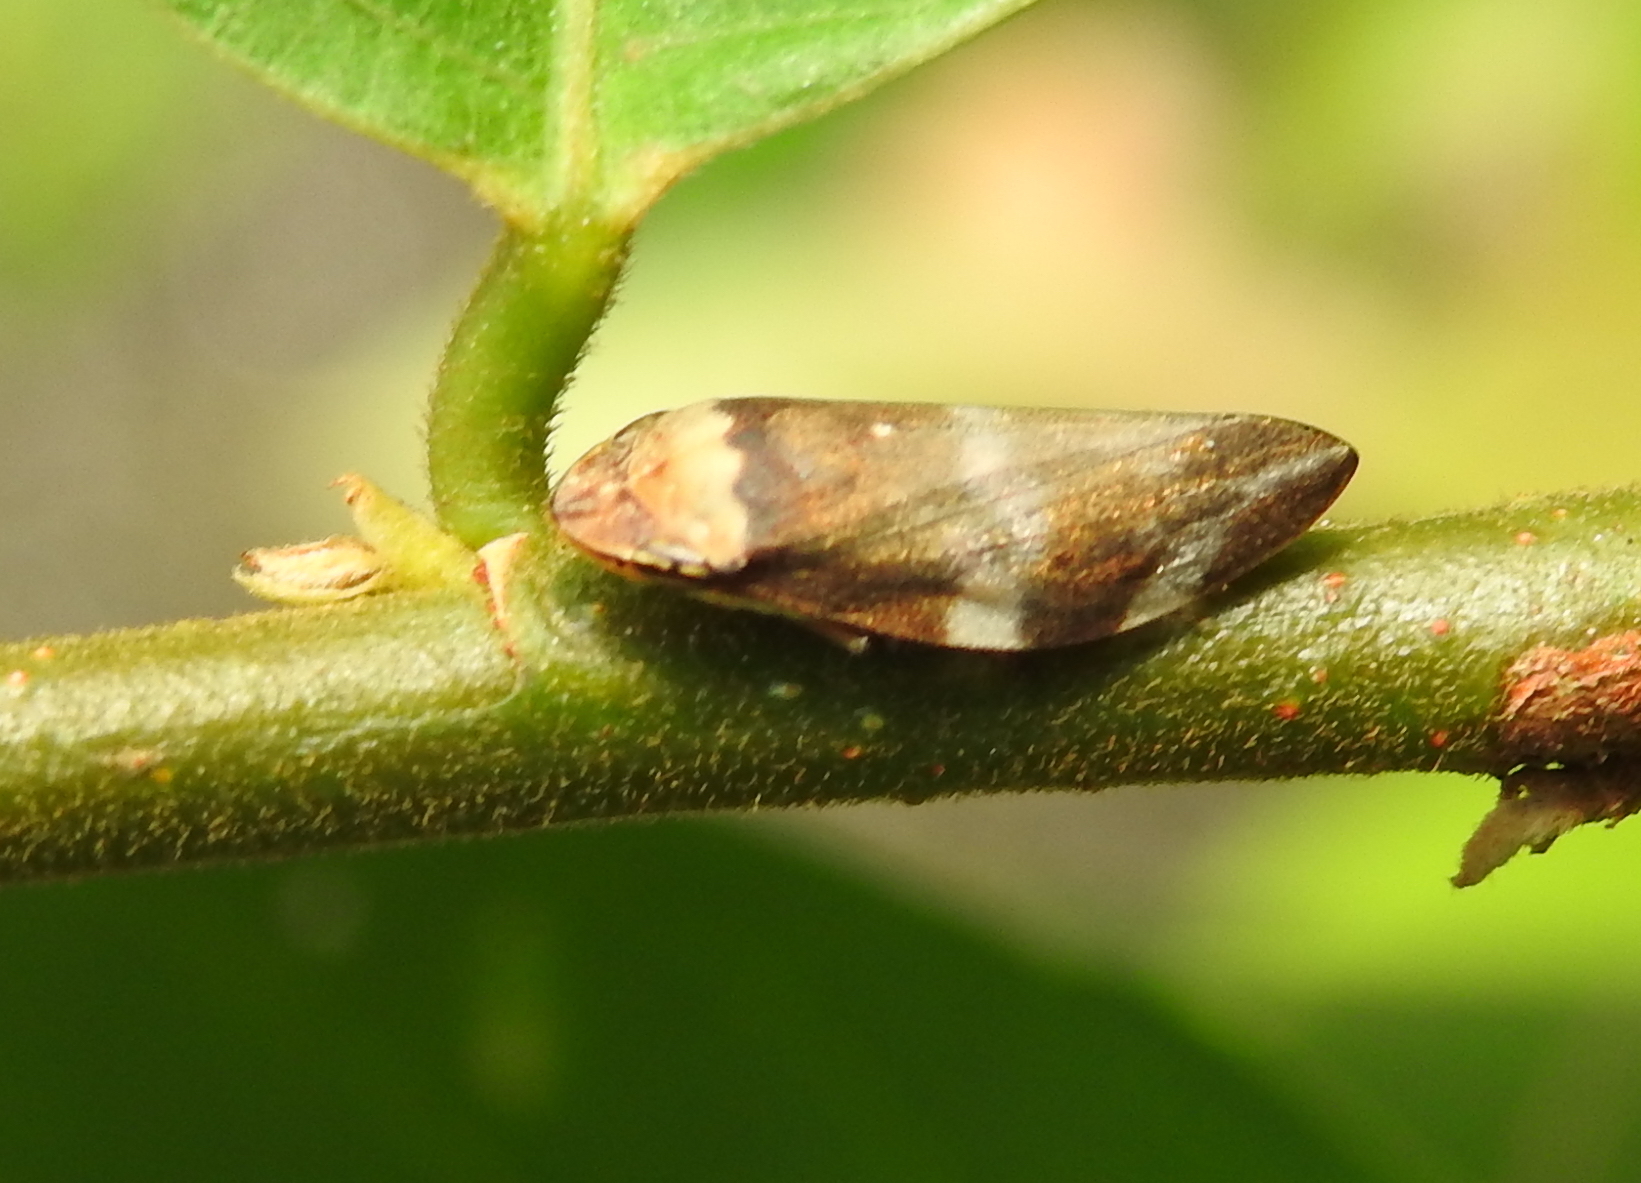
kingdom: Animalia
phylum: Arthropoda
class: Insecta
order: Hemiptera
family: Aphrophoridae
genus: Ptyelinellus
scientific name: Ptyelinellus praefractus
